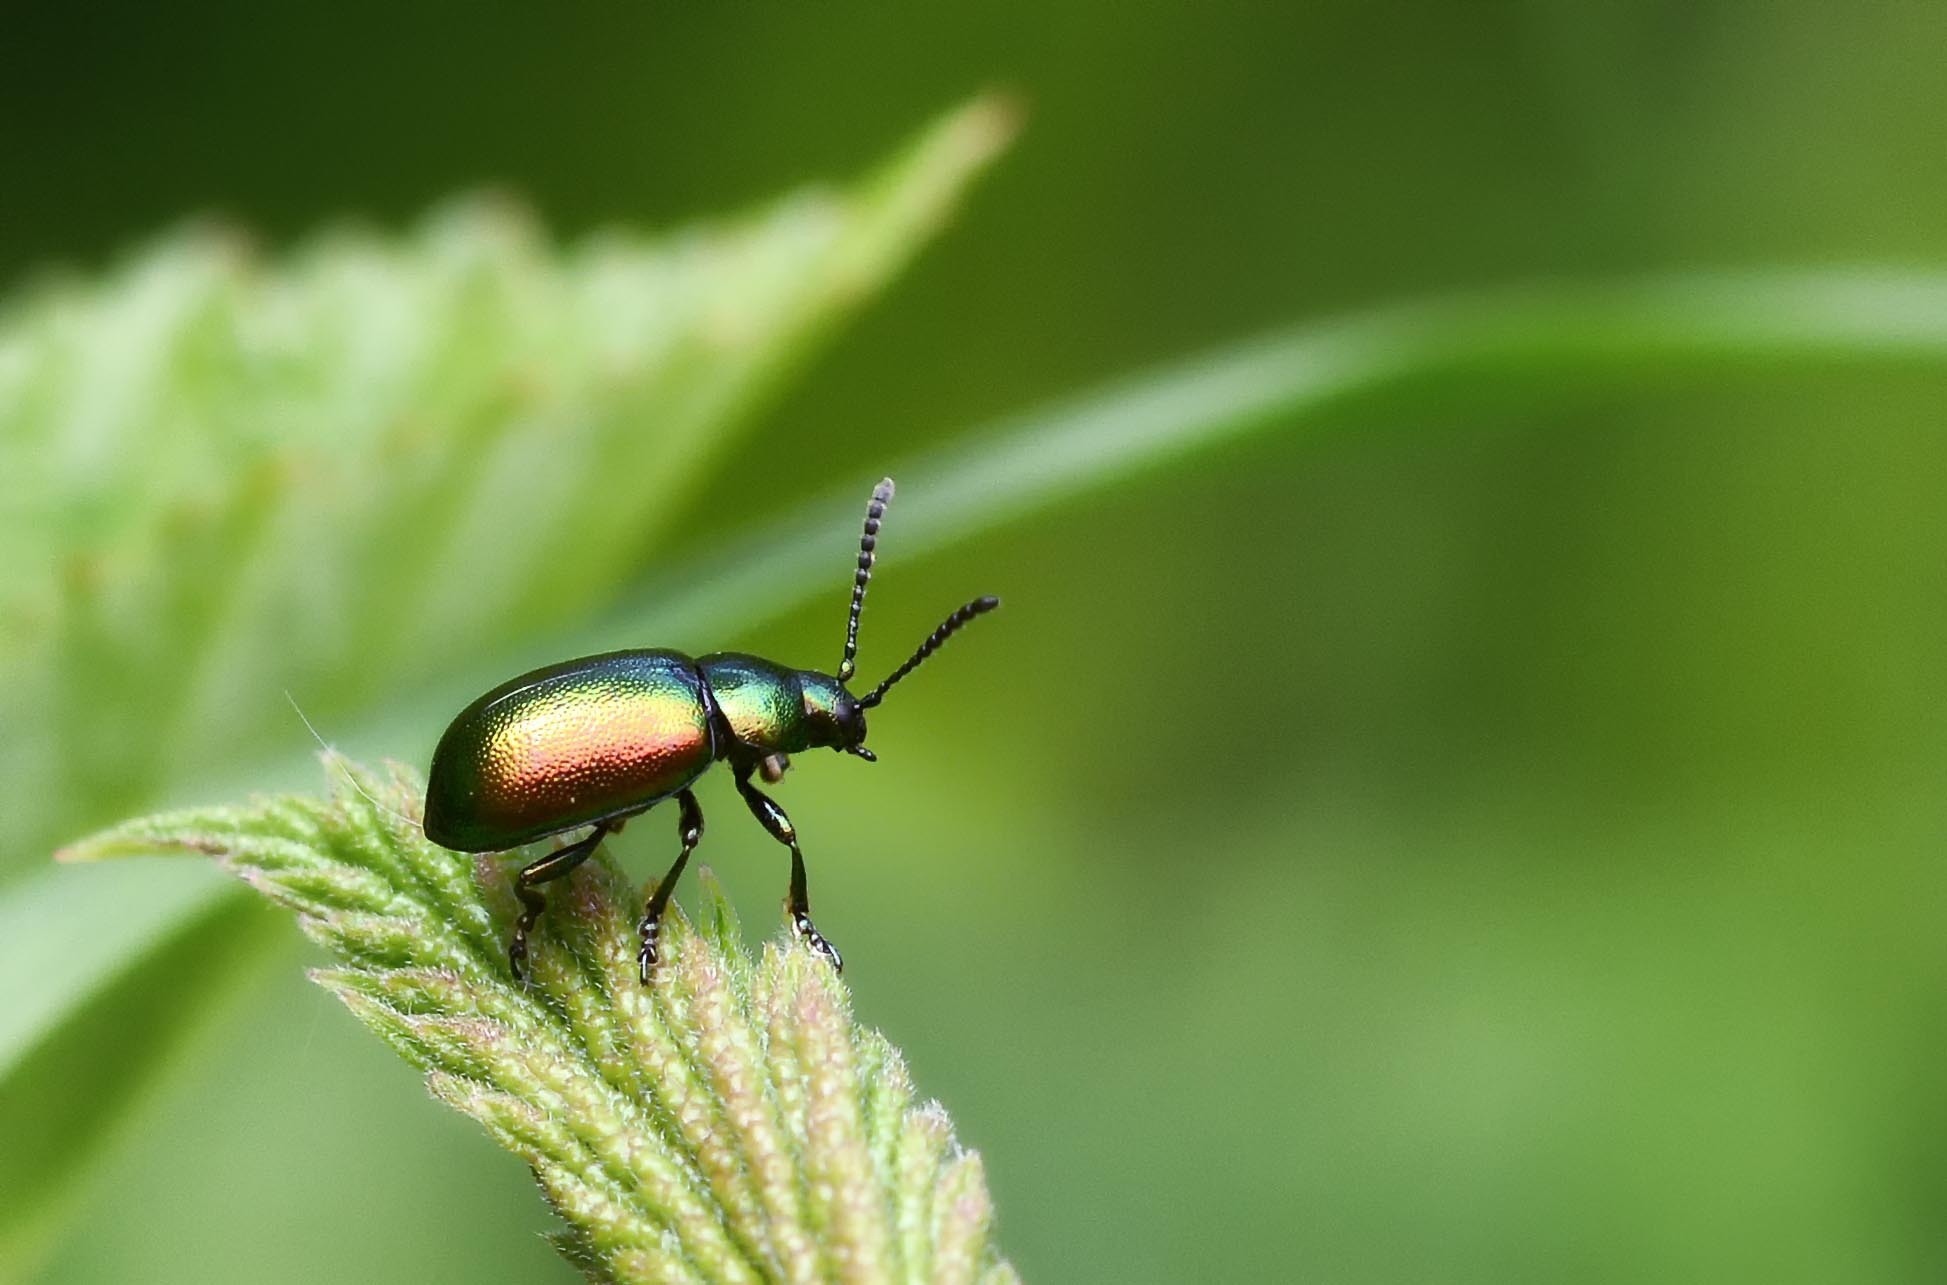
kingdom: Animalia
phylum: Arthropoda
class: Insecta
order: Coleoptera
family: Chrysomelidae
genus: Gastrophysa
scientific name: Gastrophysa viridula
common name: Green dock beetle
